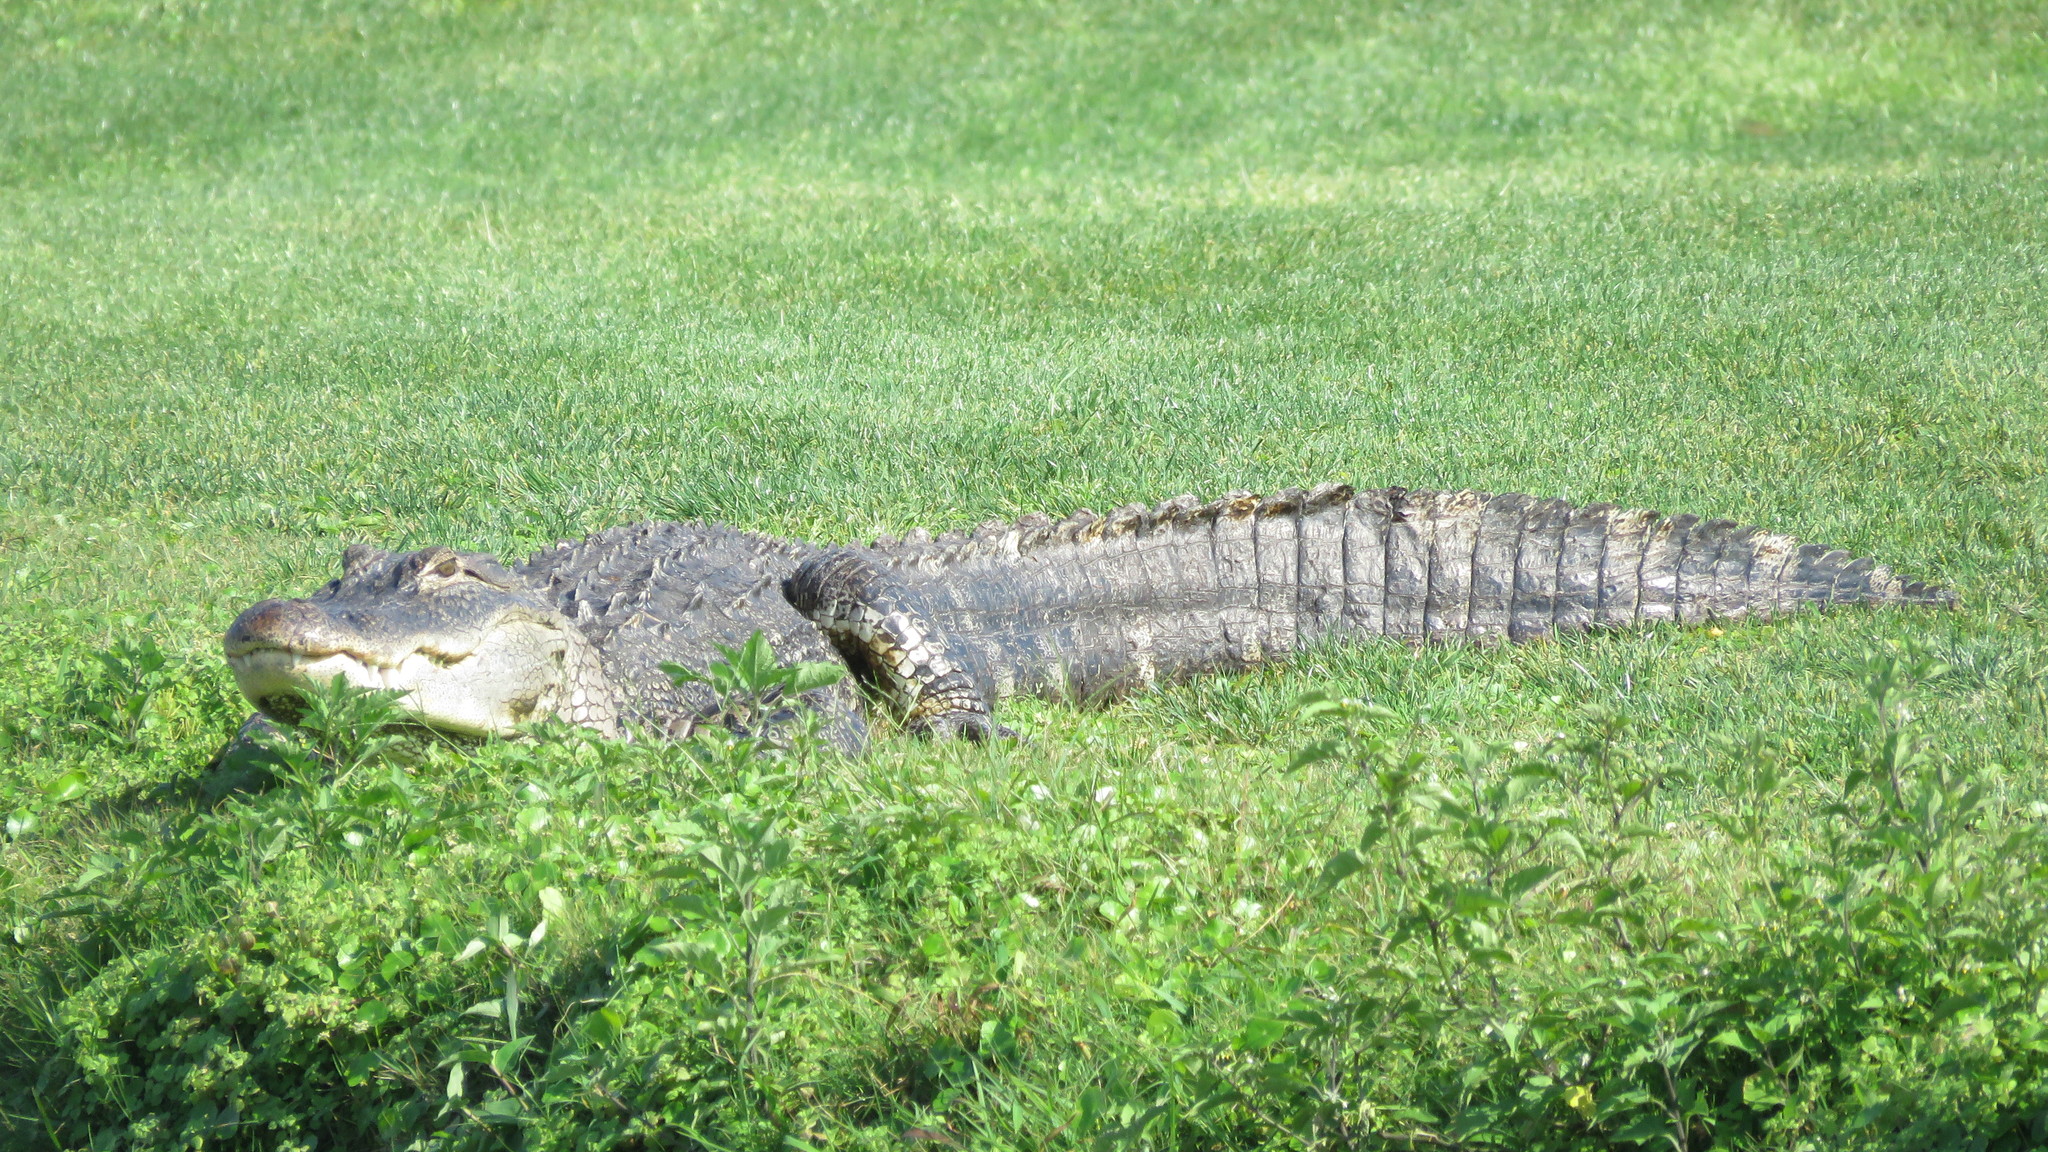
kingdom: Animalia
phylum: Chordata
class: Crocodylia
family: Alligatoridae
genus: Alligator
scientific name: Alligator mississippiensis
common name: American alligator
